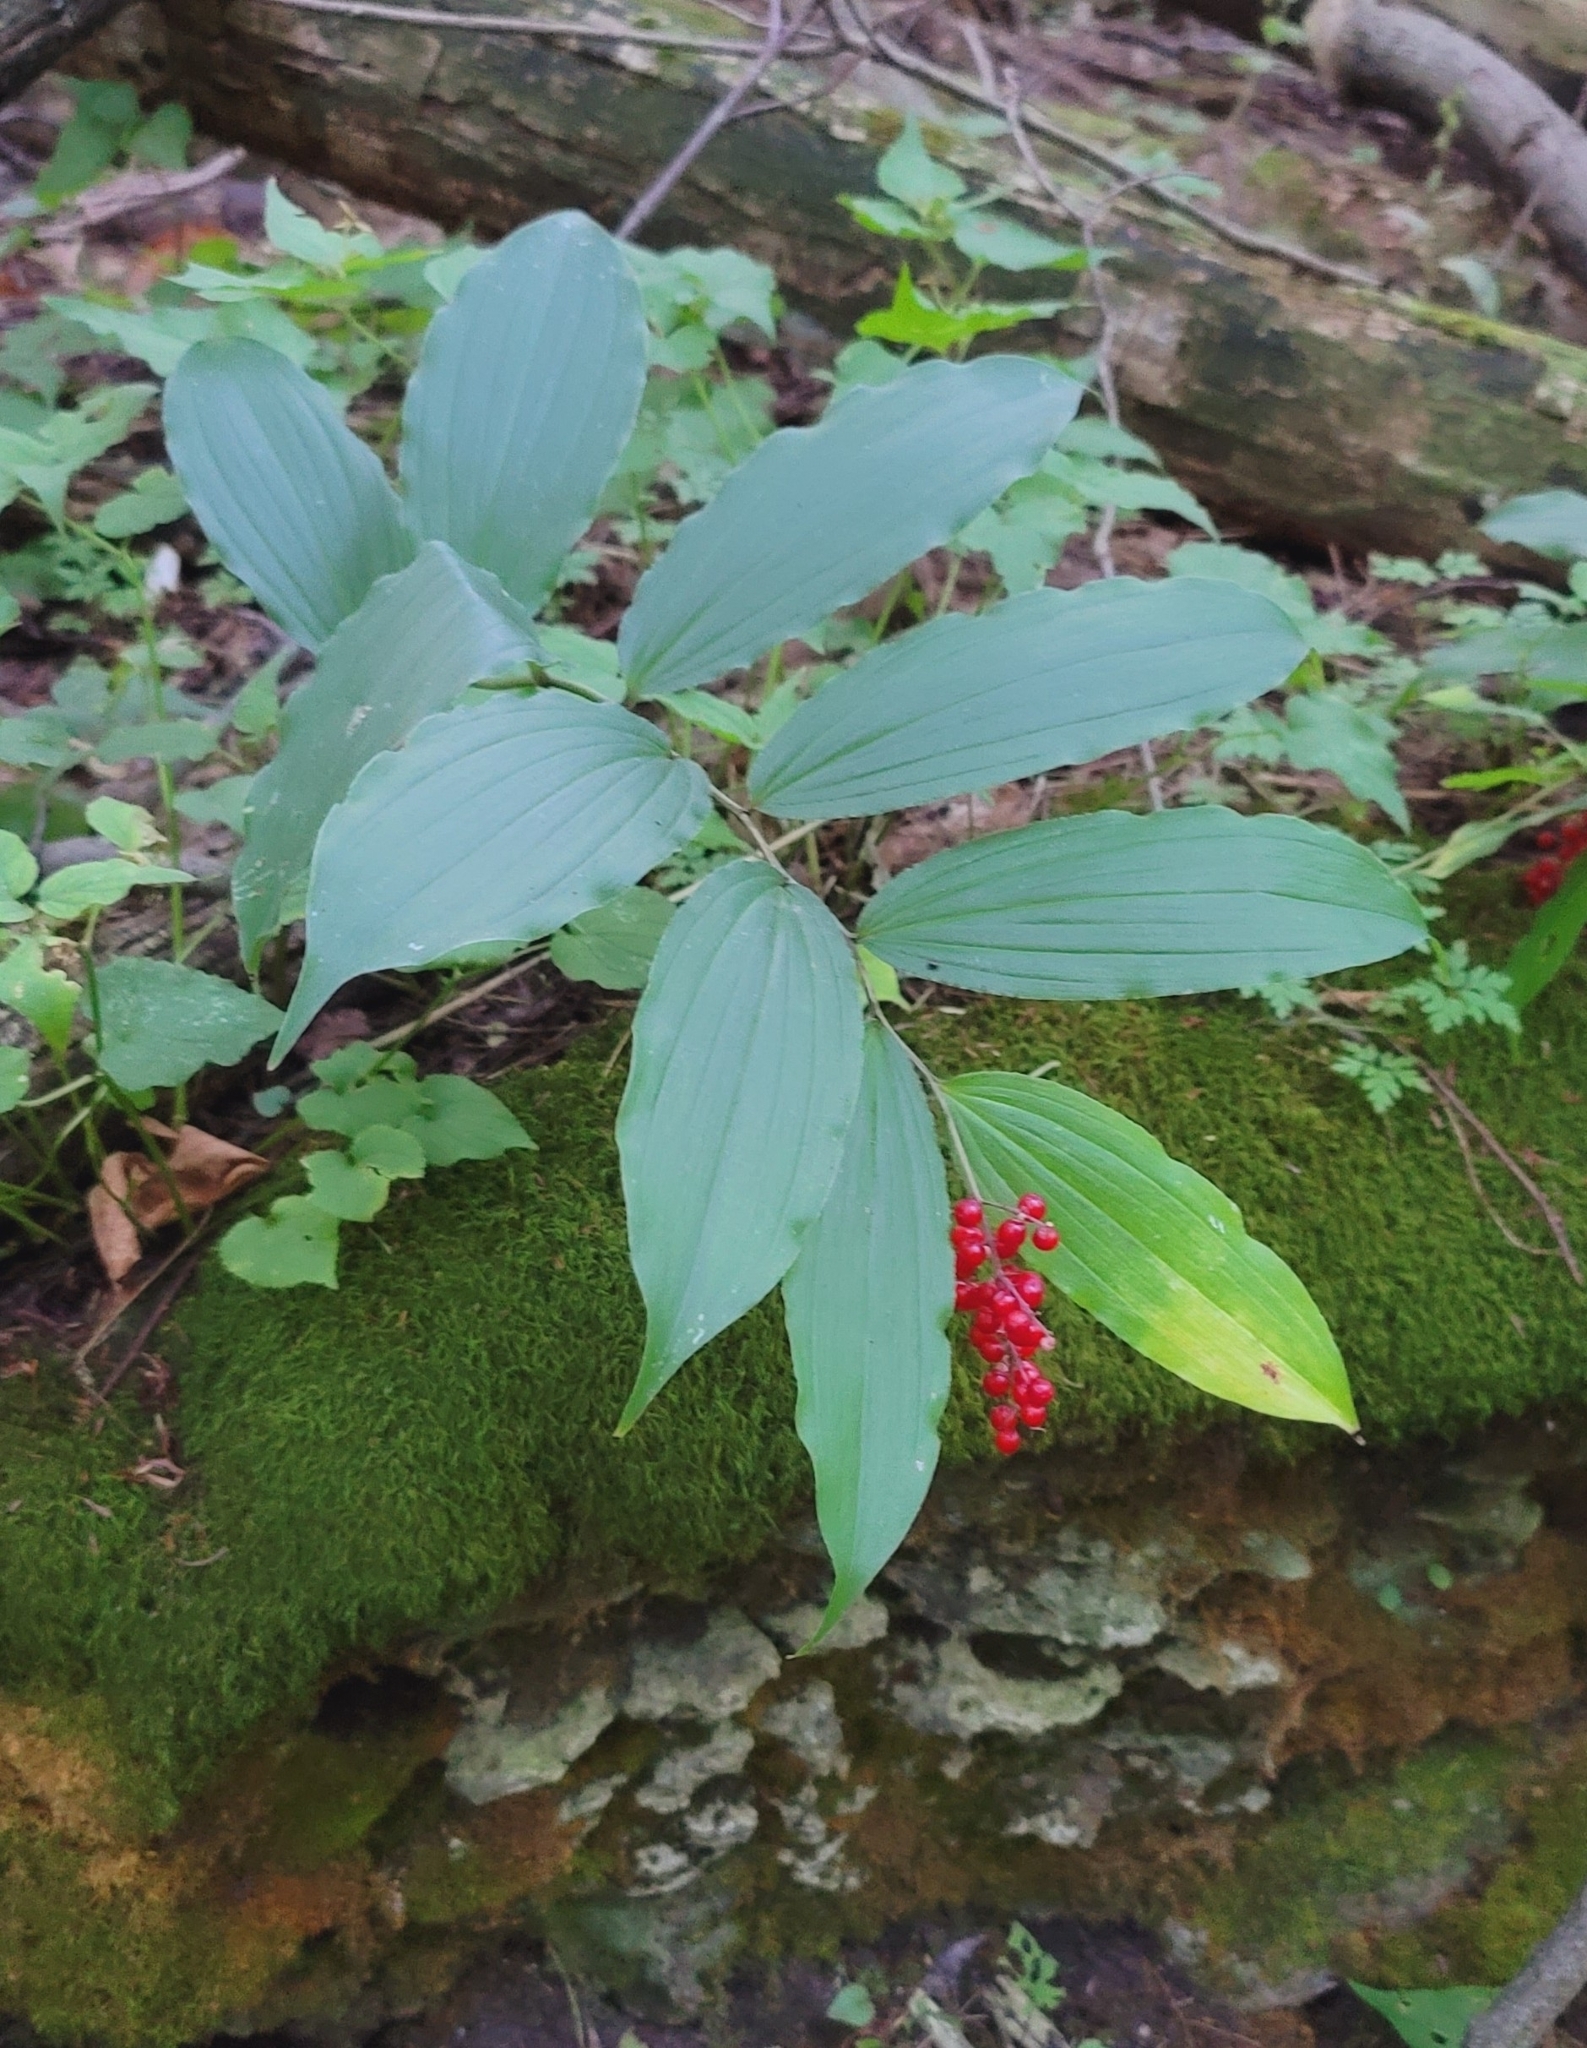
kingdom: Plantae
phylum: Tracheophyta
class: Liliopsida
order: Asparagales
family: Asparagaceae
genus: Maianthemum
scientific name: Maianthemum racemosum
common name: False spikenard
